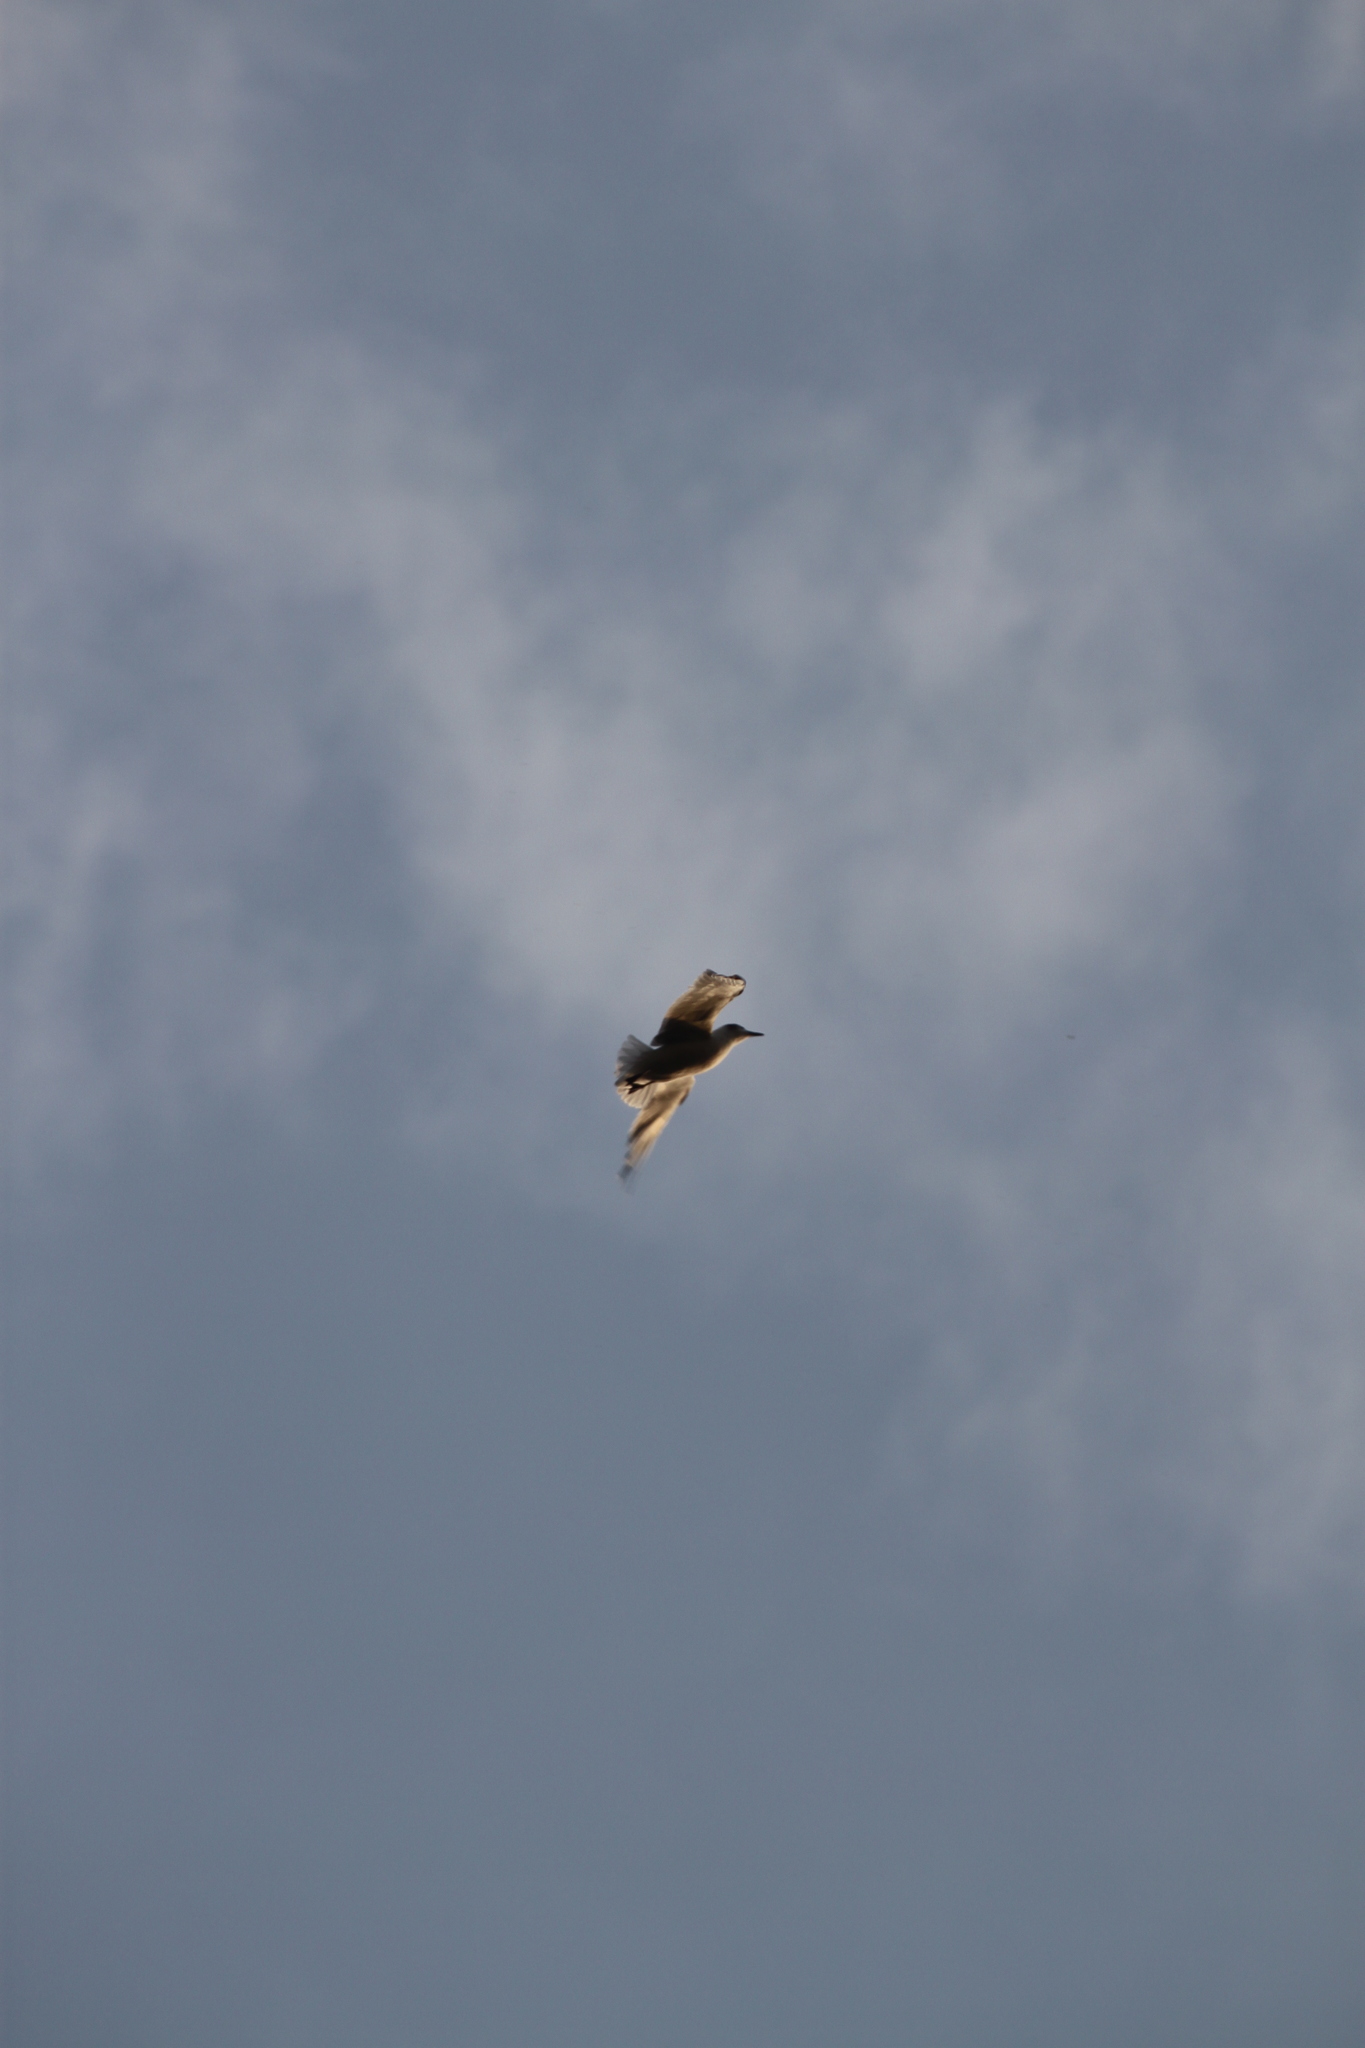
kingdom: Animalia
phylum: Chordata
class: Aves
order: Charadriiformes
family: Laridae
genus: Leucophaeus
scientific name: Leucophaeus pipixcan
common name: Franklin's gull
